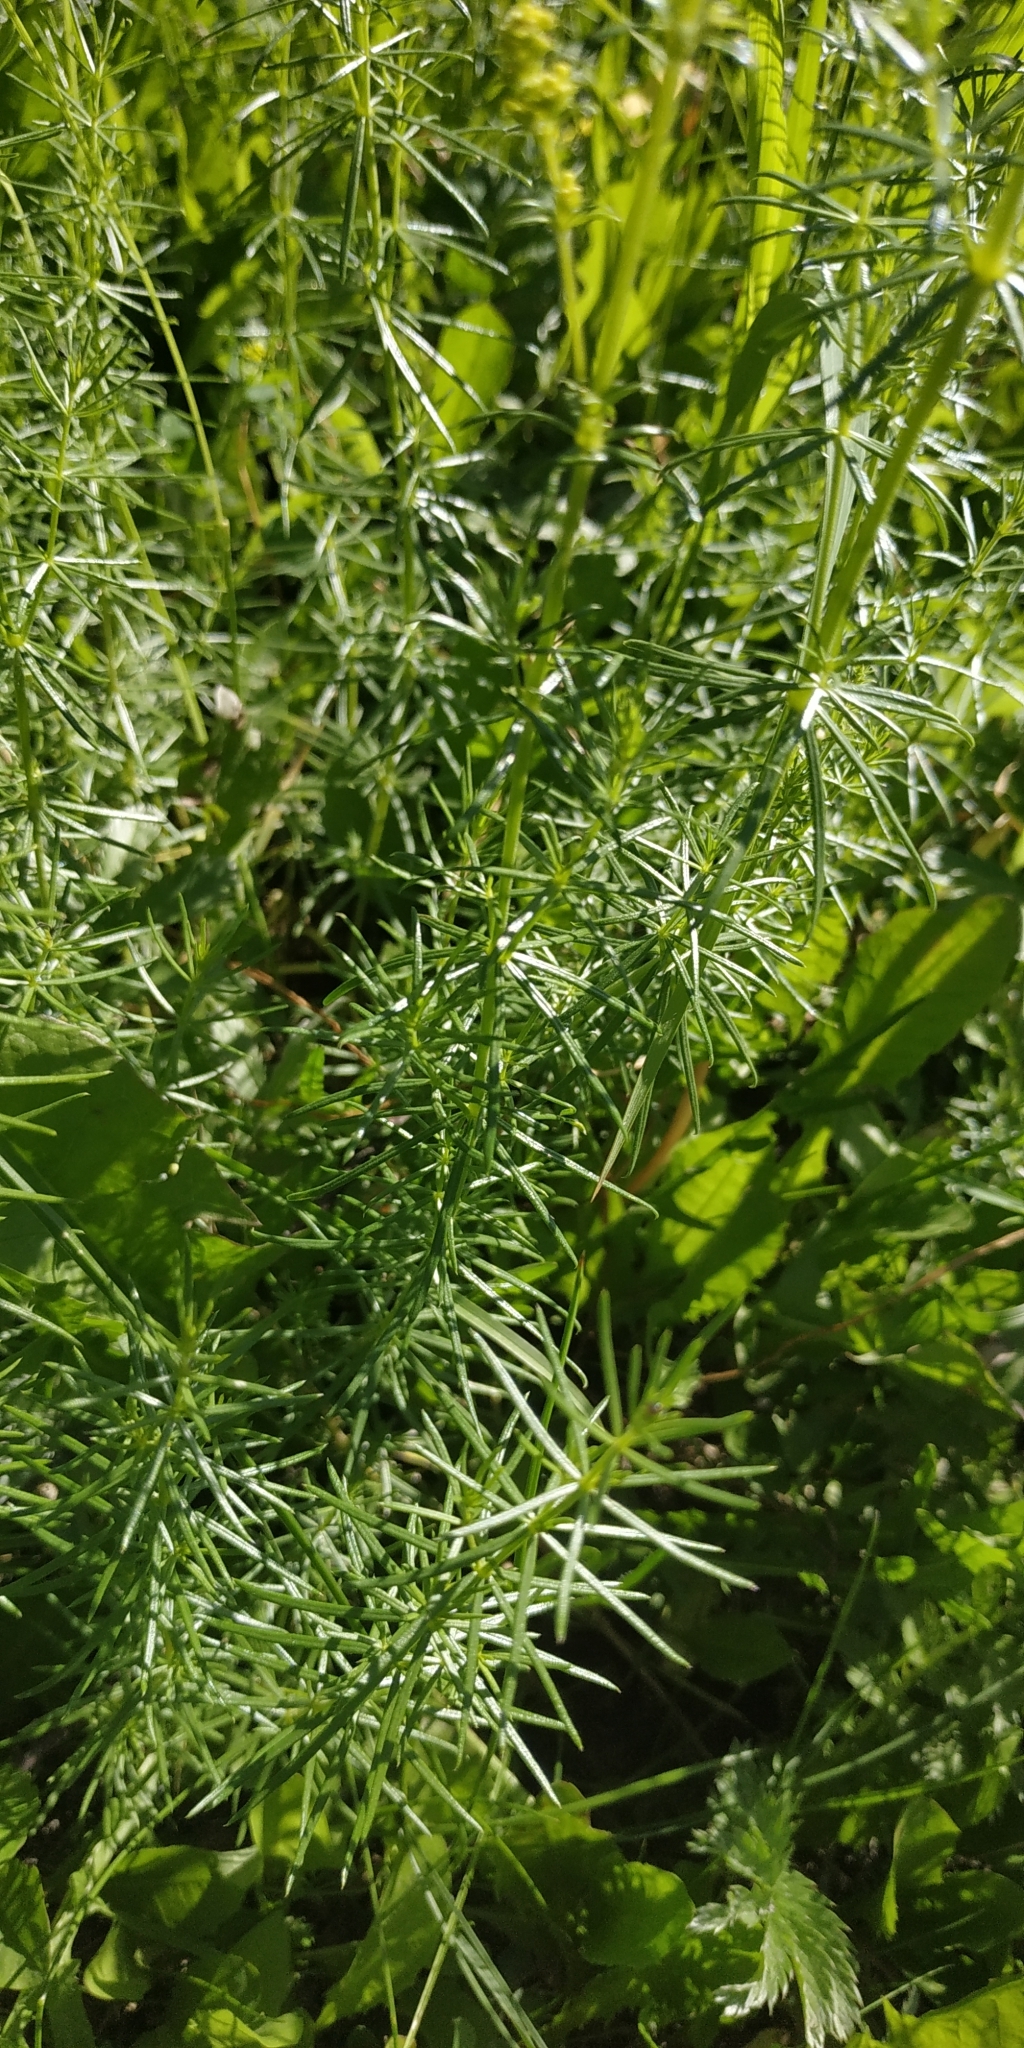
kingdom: Plantae
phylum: Tracheophyta
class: Magnoliopsida
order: Gentianales
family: Rubiaceae
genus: Galium
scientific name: Galium verum
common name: Lady's bedstraw
